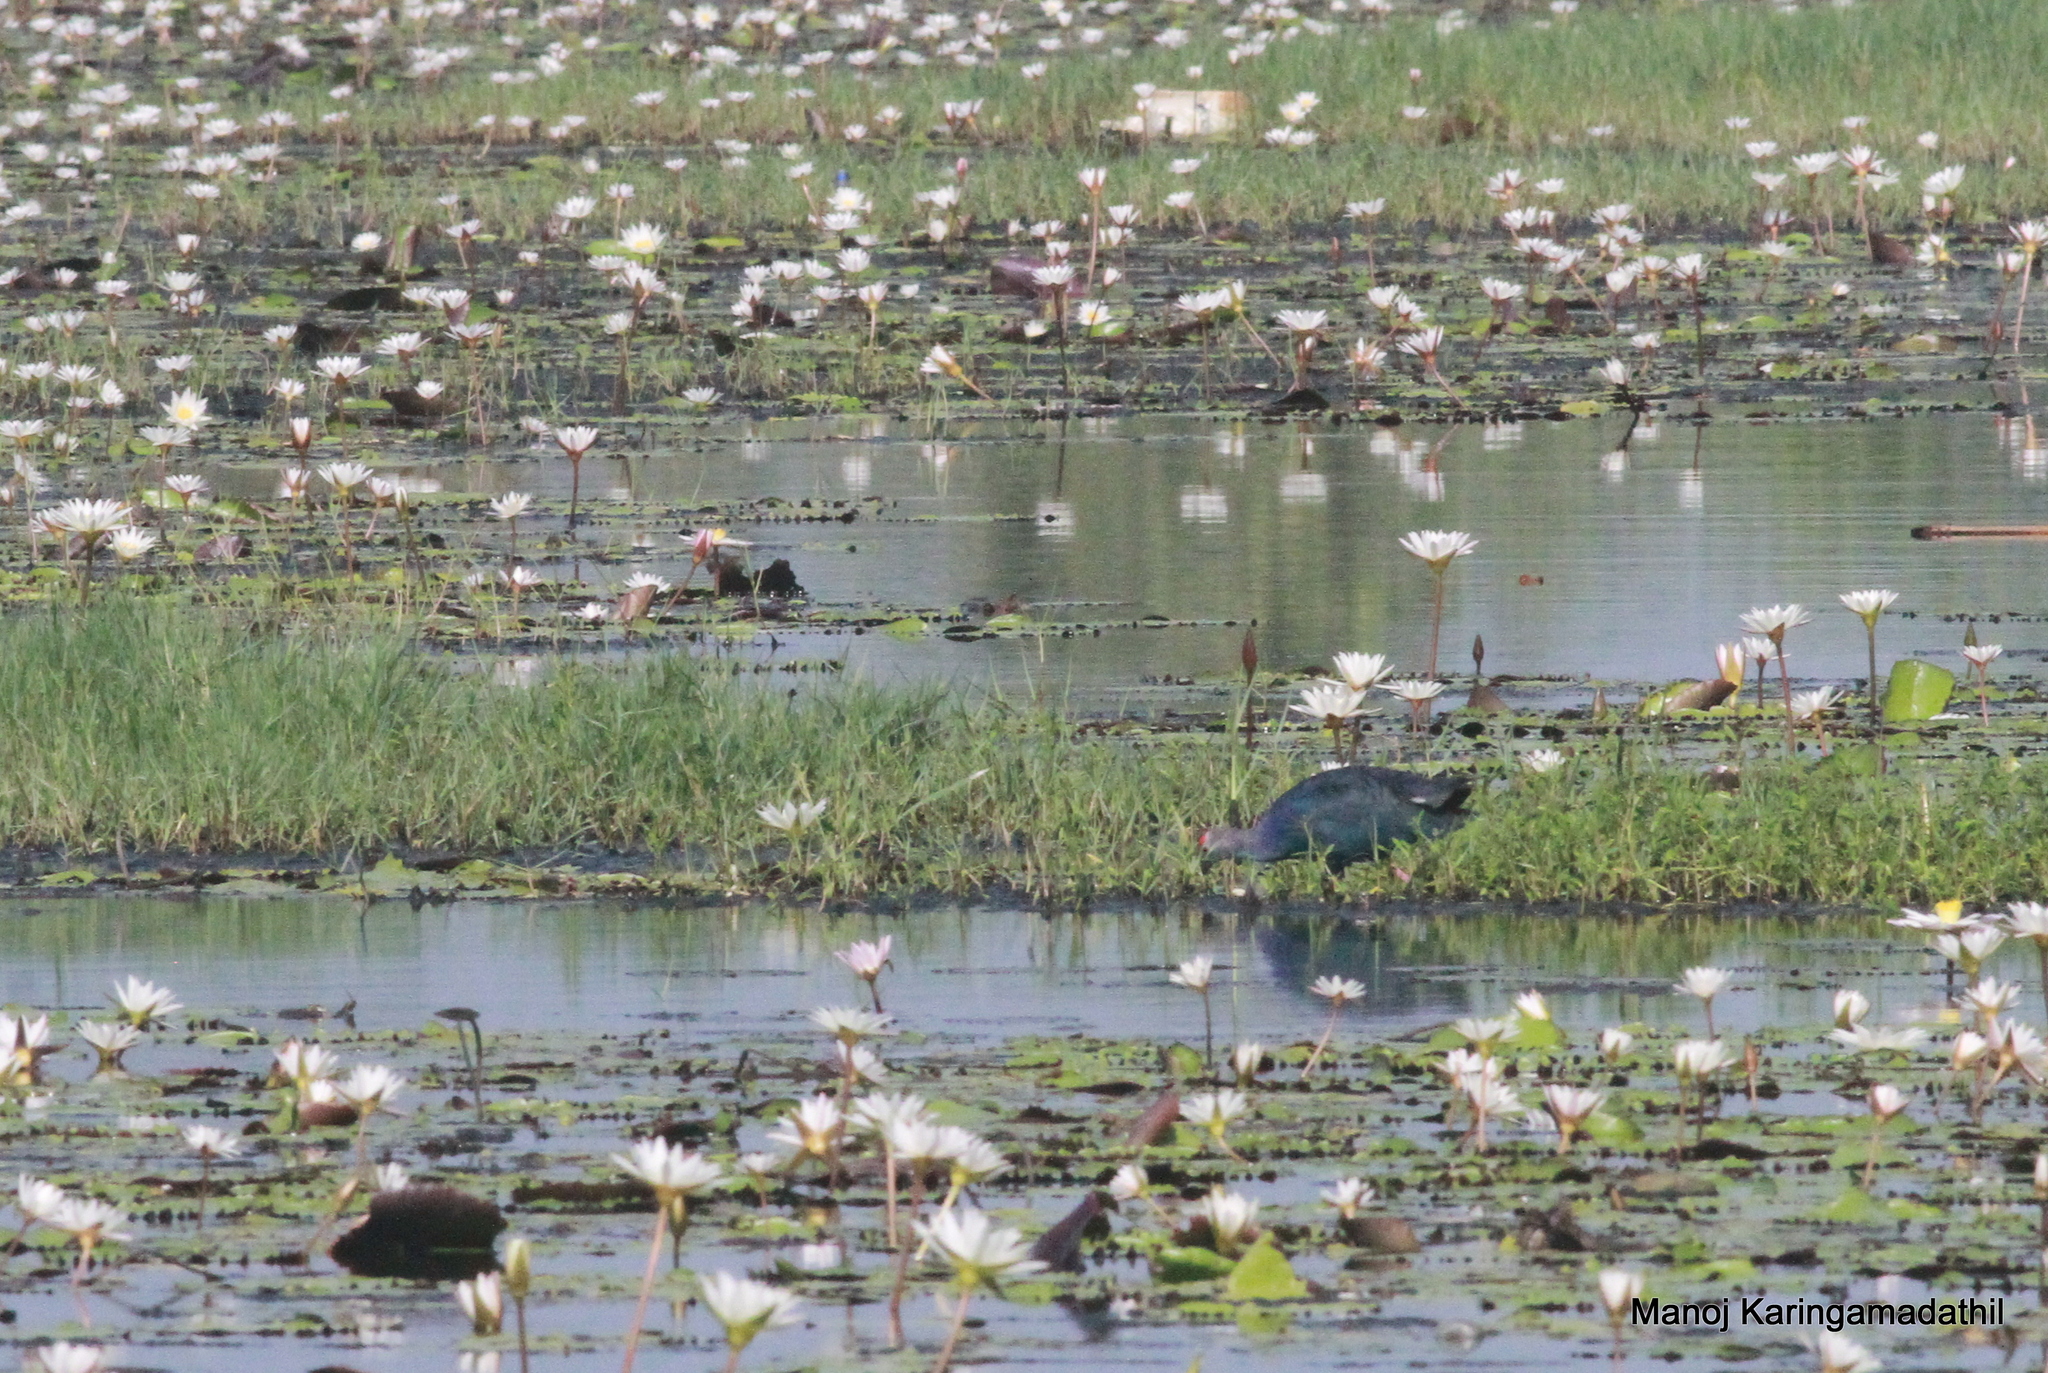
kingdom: Animalia
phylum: Chordata
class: Aves
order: Gruiformes
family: Rallidae
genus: Porphyrio
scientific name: Porphyrio porphyrio
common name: Purple swamphen
